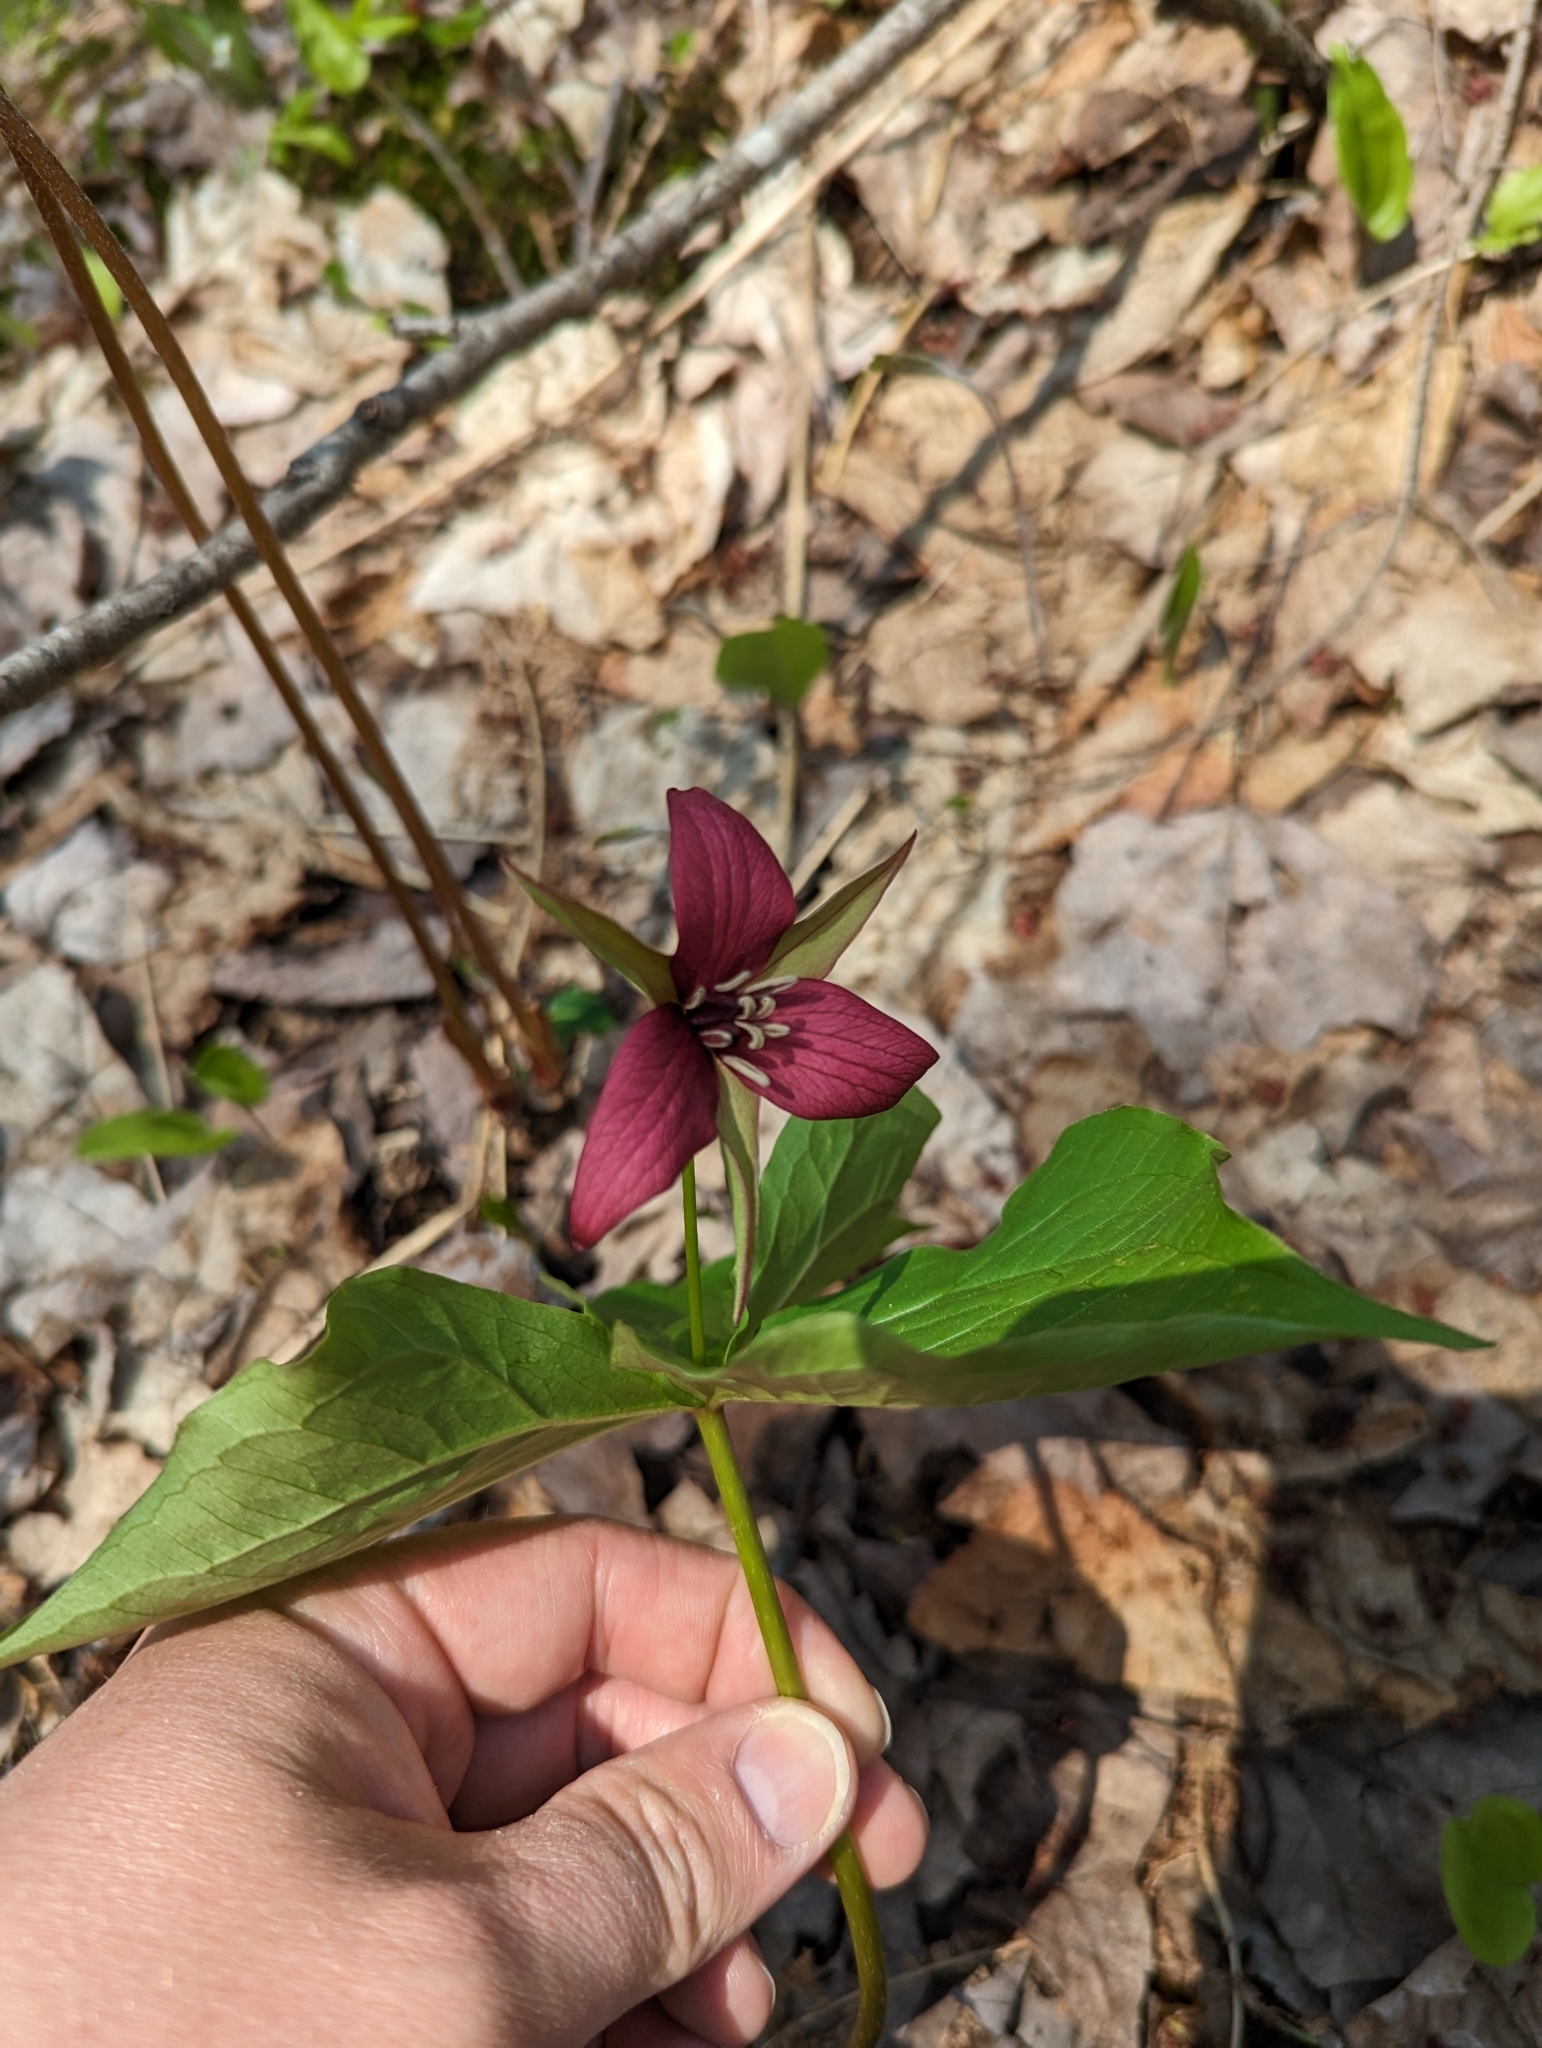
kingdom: Plantae
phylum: Tracheophyta
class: Liliopsida
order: Liliales
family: Melanthiaceae
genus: Trillium
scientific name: Trillium erectum
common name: Purple trillium
